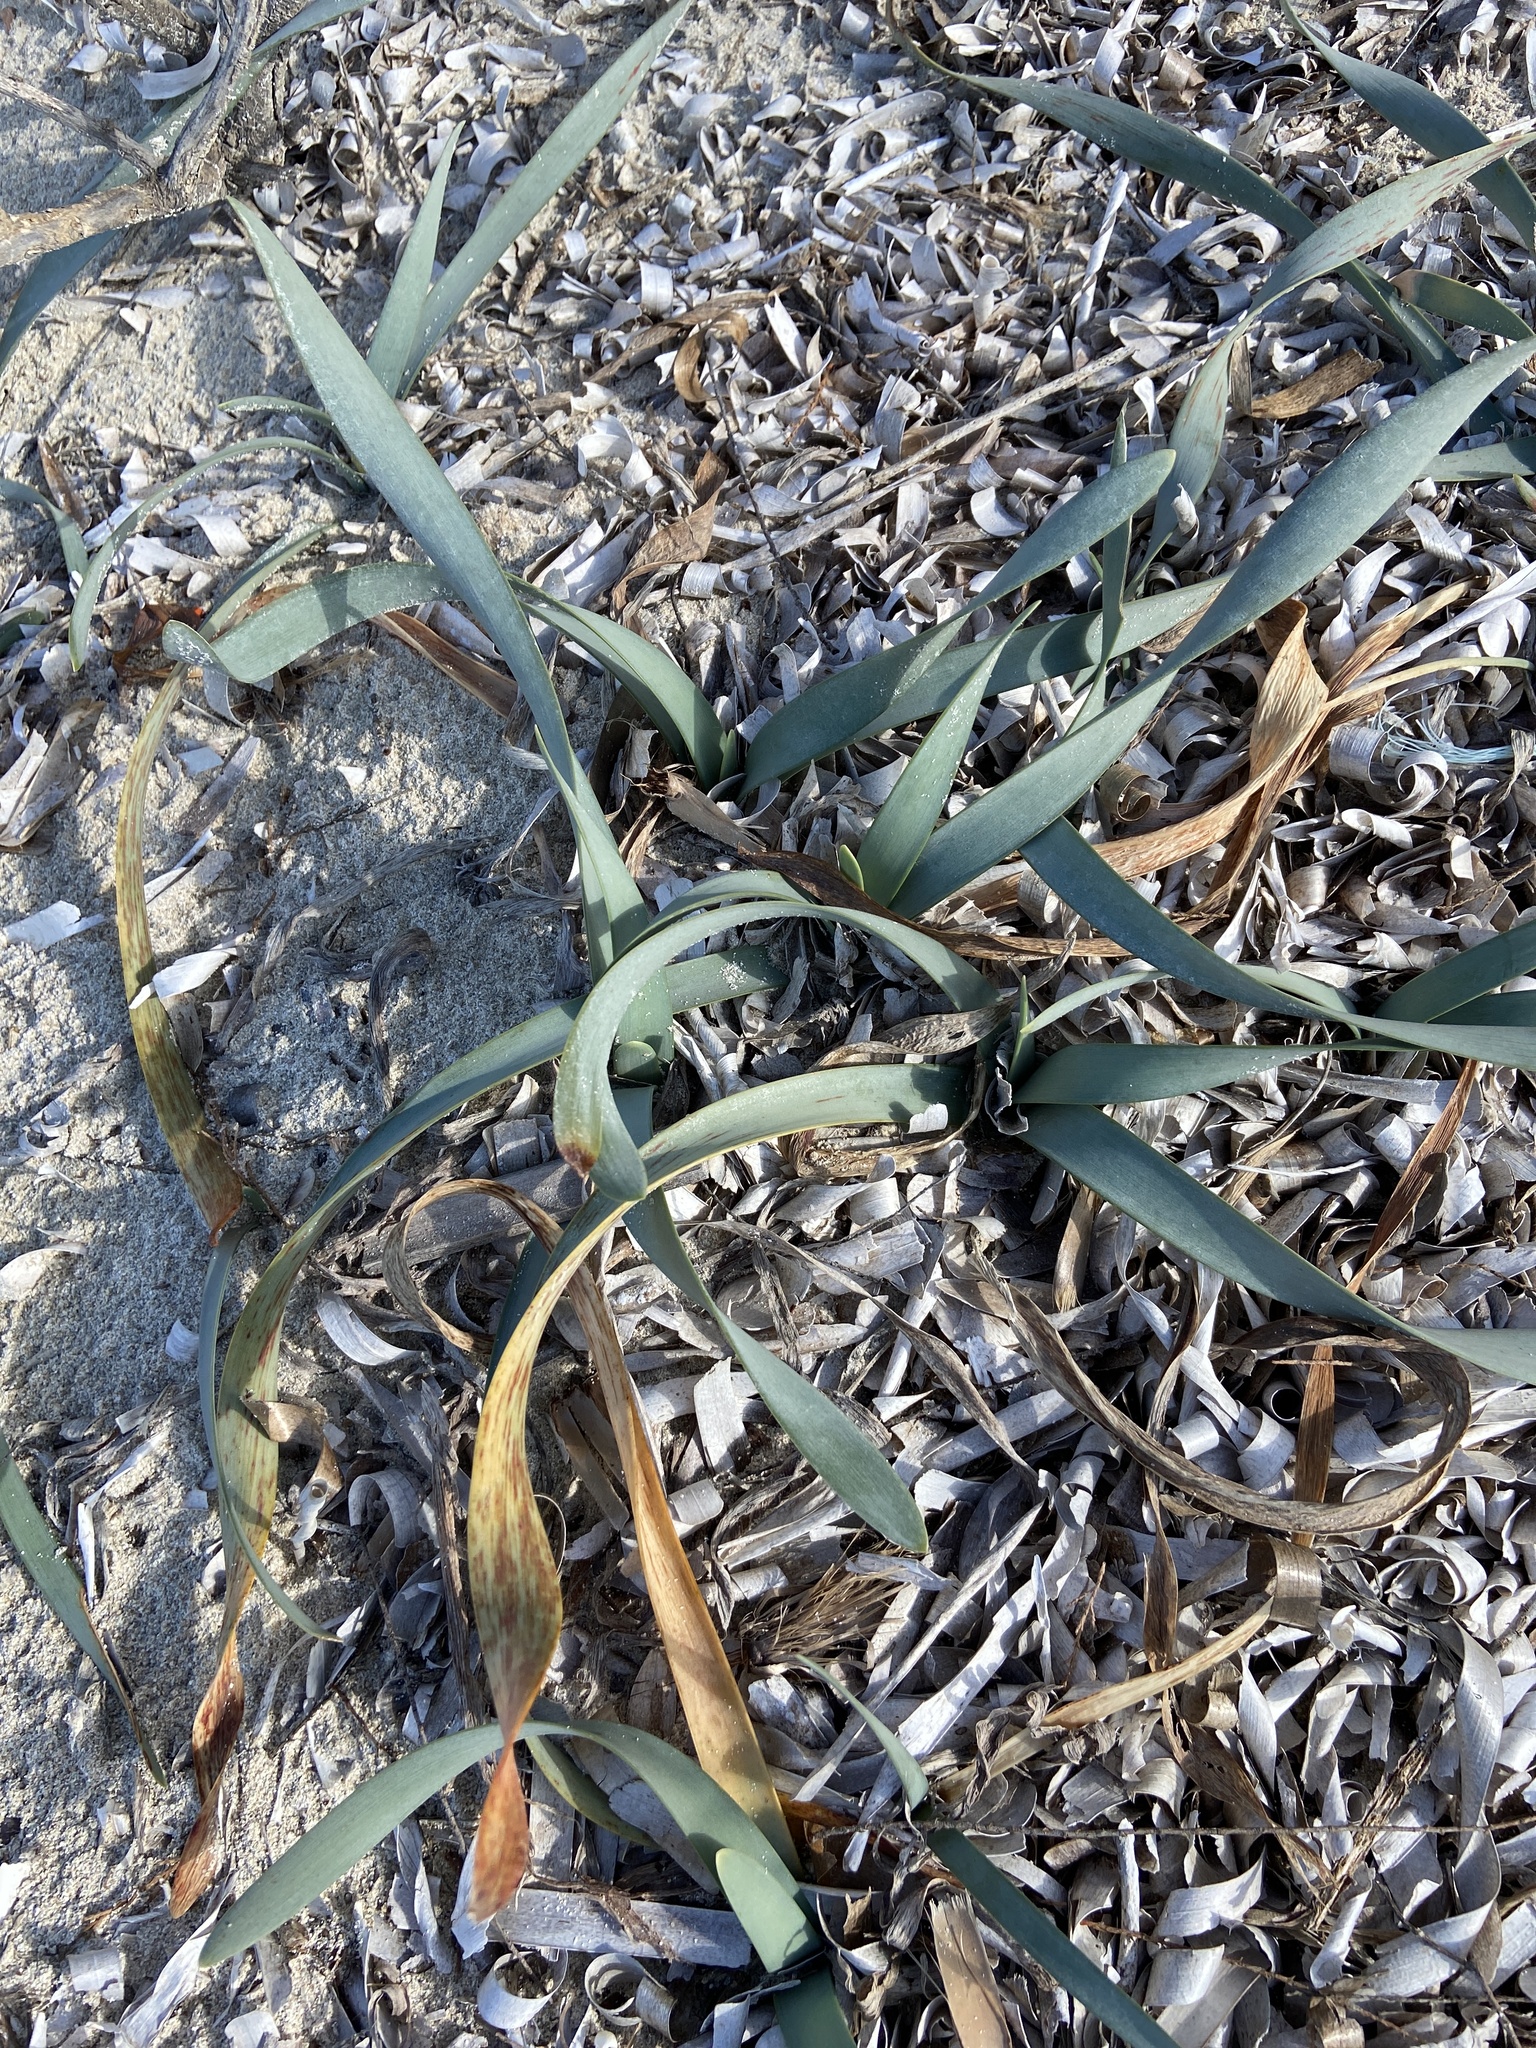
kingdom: Plantae
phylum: Tracheophyta
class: Liliopsida
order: Asparagales
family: Amaryllidaceae
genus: Pancratium
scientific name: Pancratium maritimum
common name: Sea-daffodil
